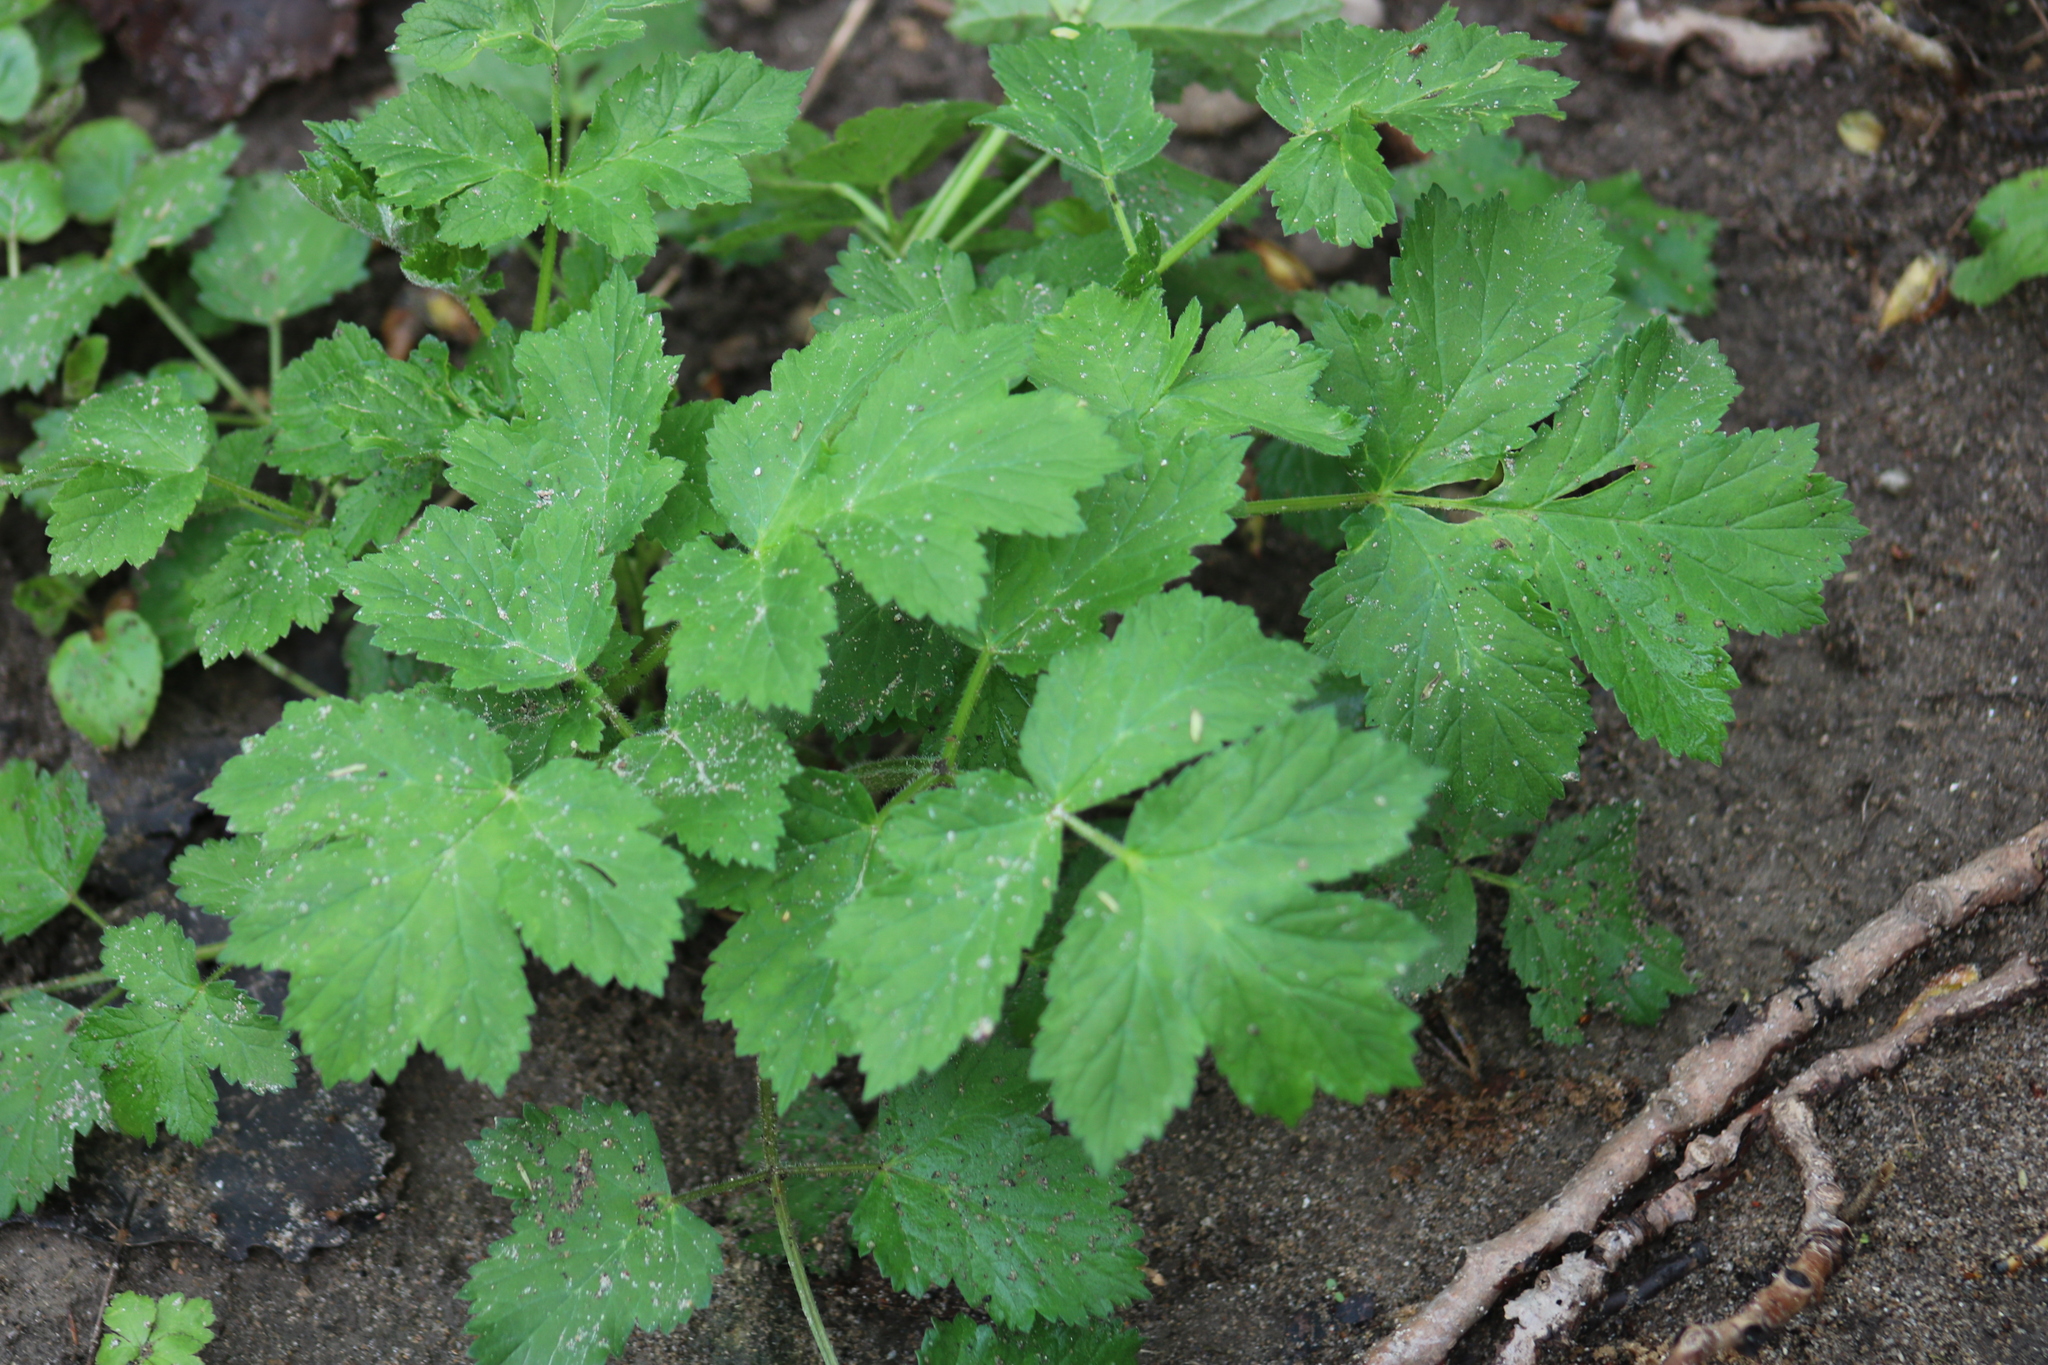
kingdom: Plantae
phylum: Tracheophyta
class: Magnoliopsida
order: Apiales
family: Apiaceae
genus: Heracleum
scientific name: Heracleum maximum
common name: American cow parsnip
